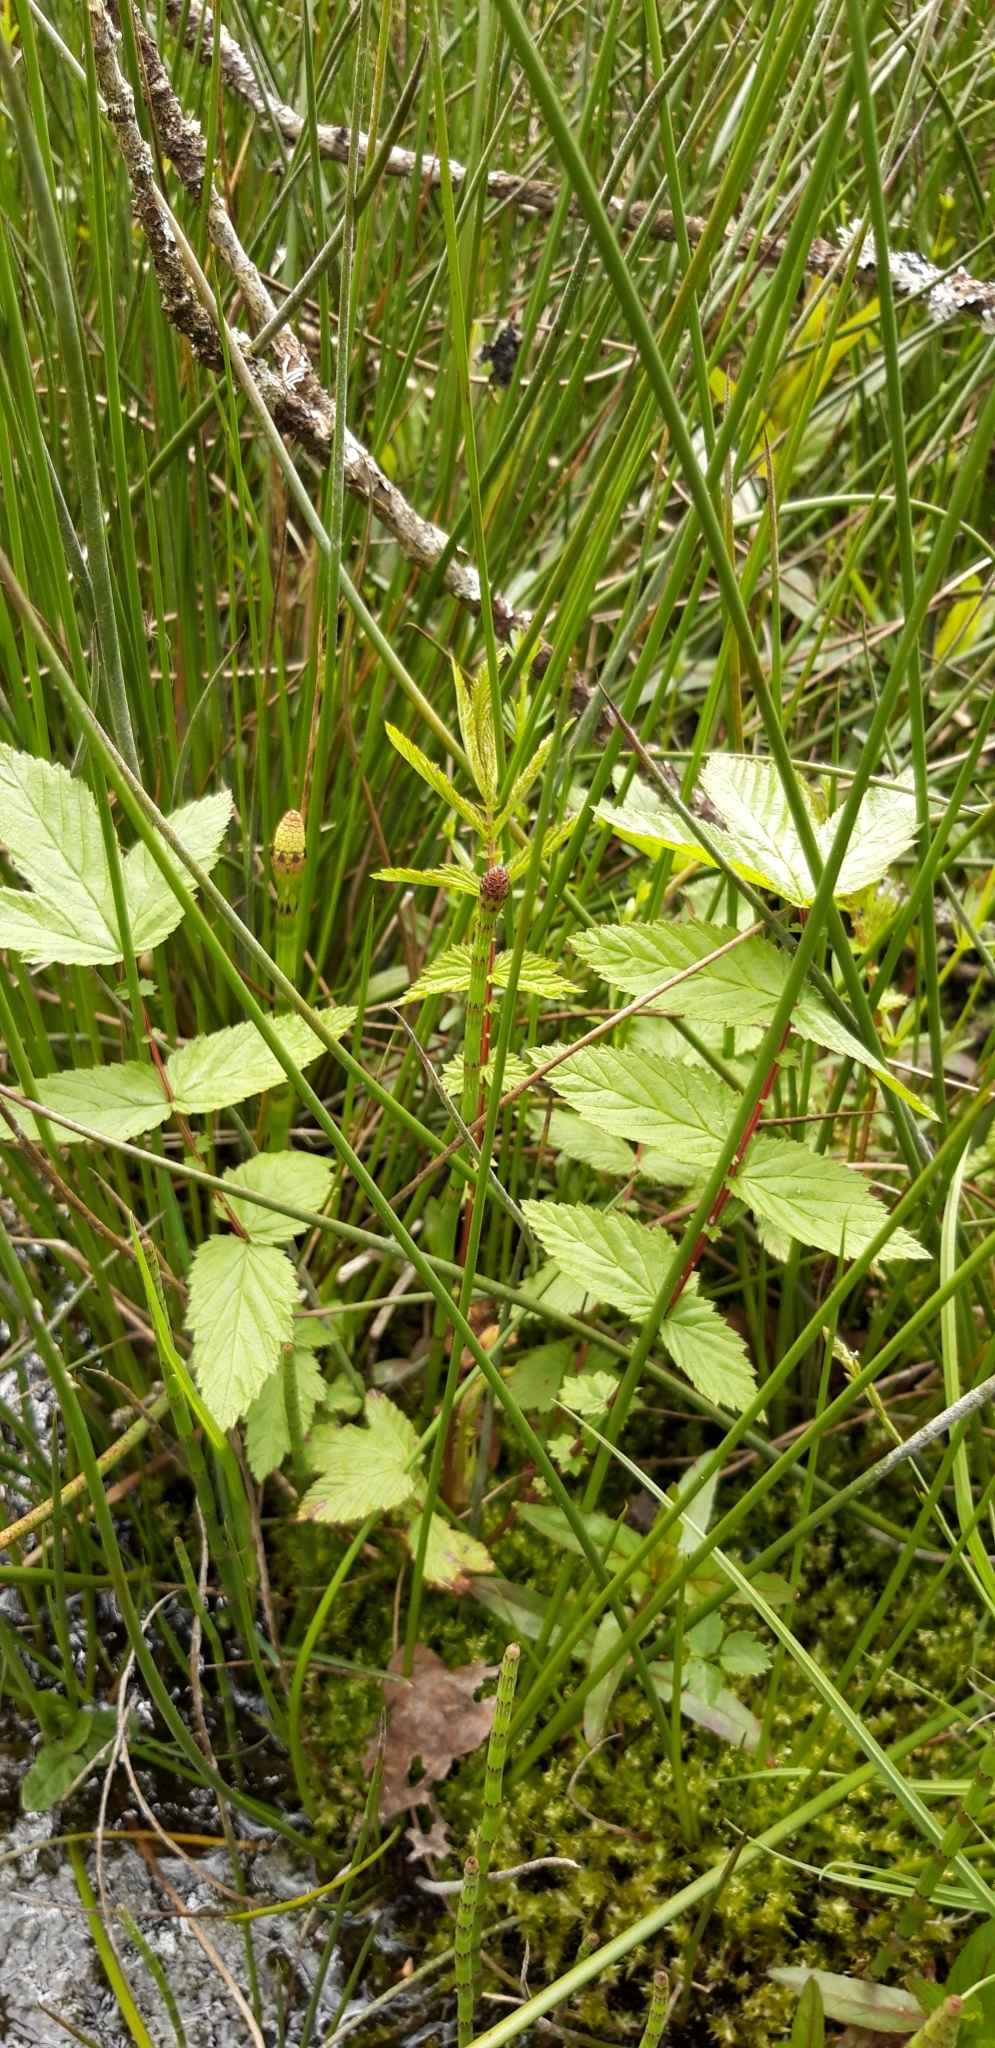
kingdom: Plantae
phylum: Tracheophyta
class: Magnoliopsida
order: Rosales
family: Rosaceae
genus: Filipendula
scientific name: Filipendula ulmaria
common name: Meadowsweet
